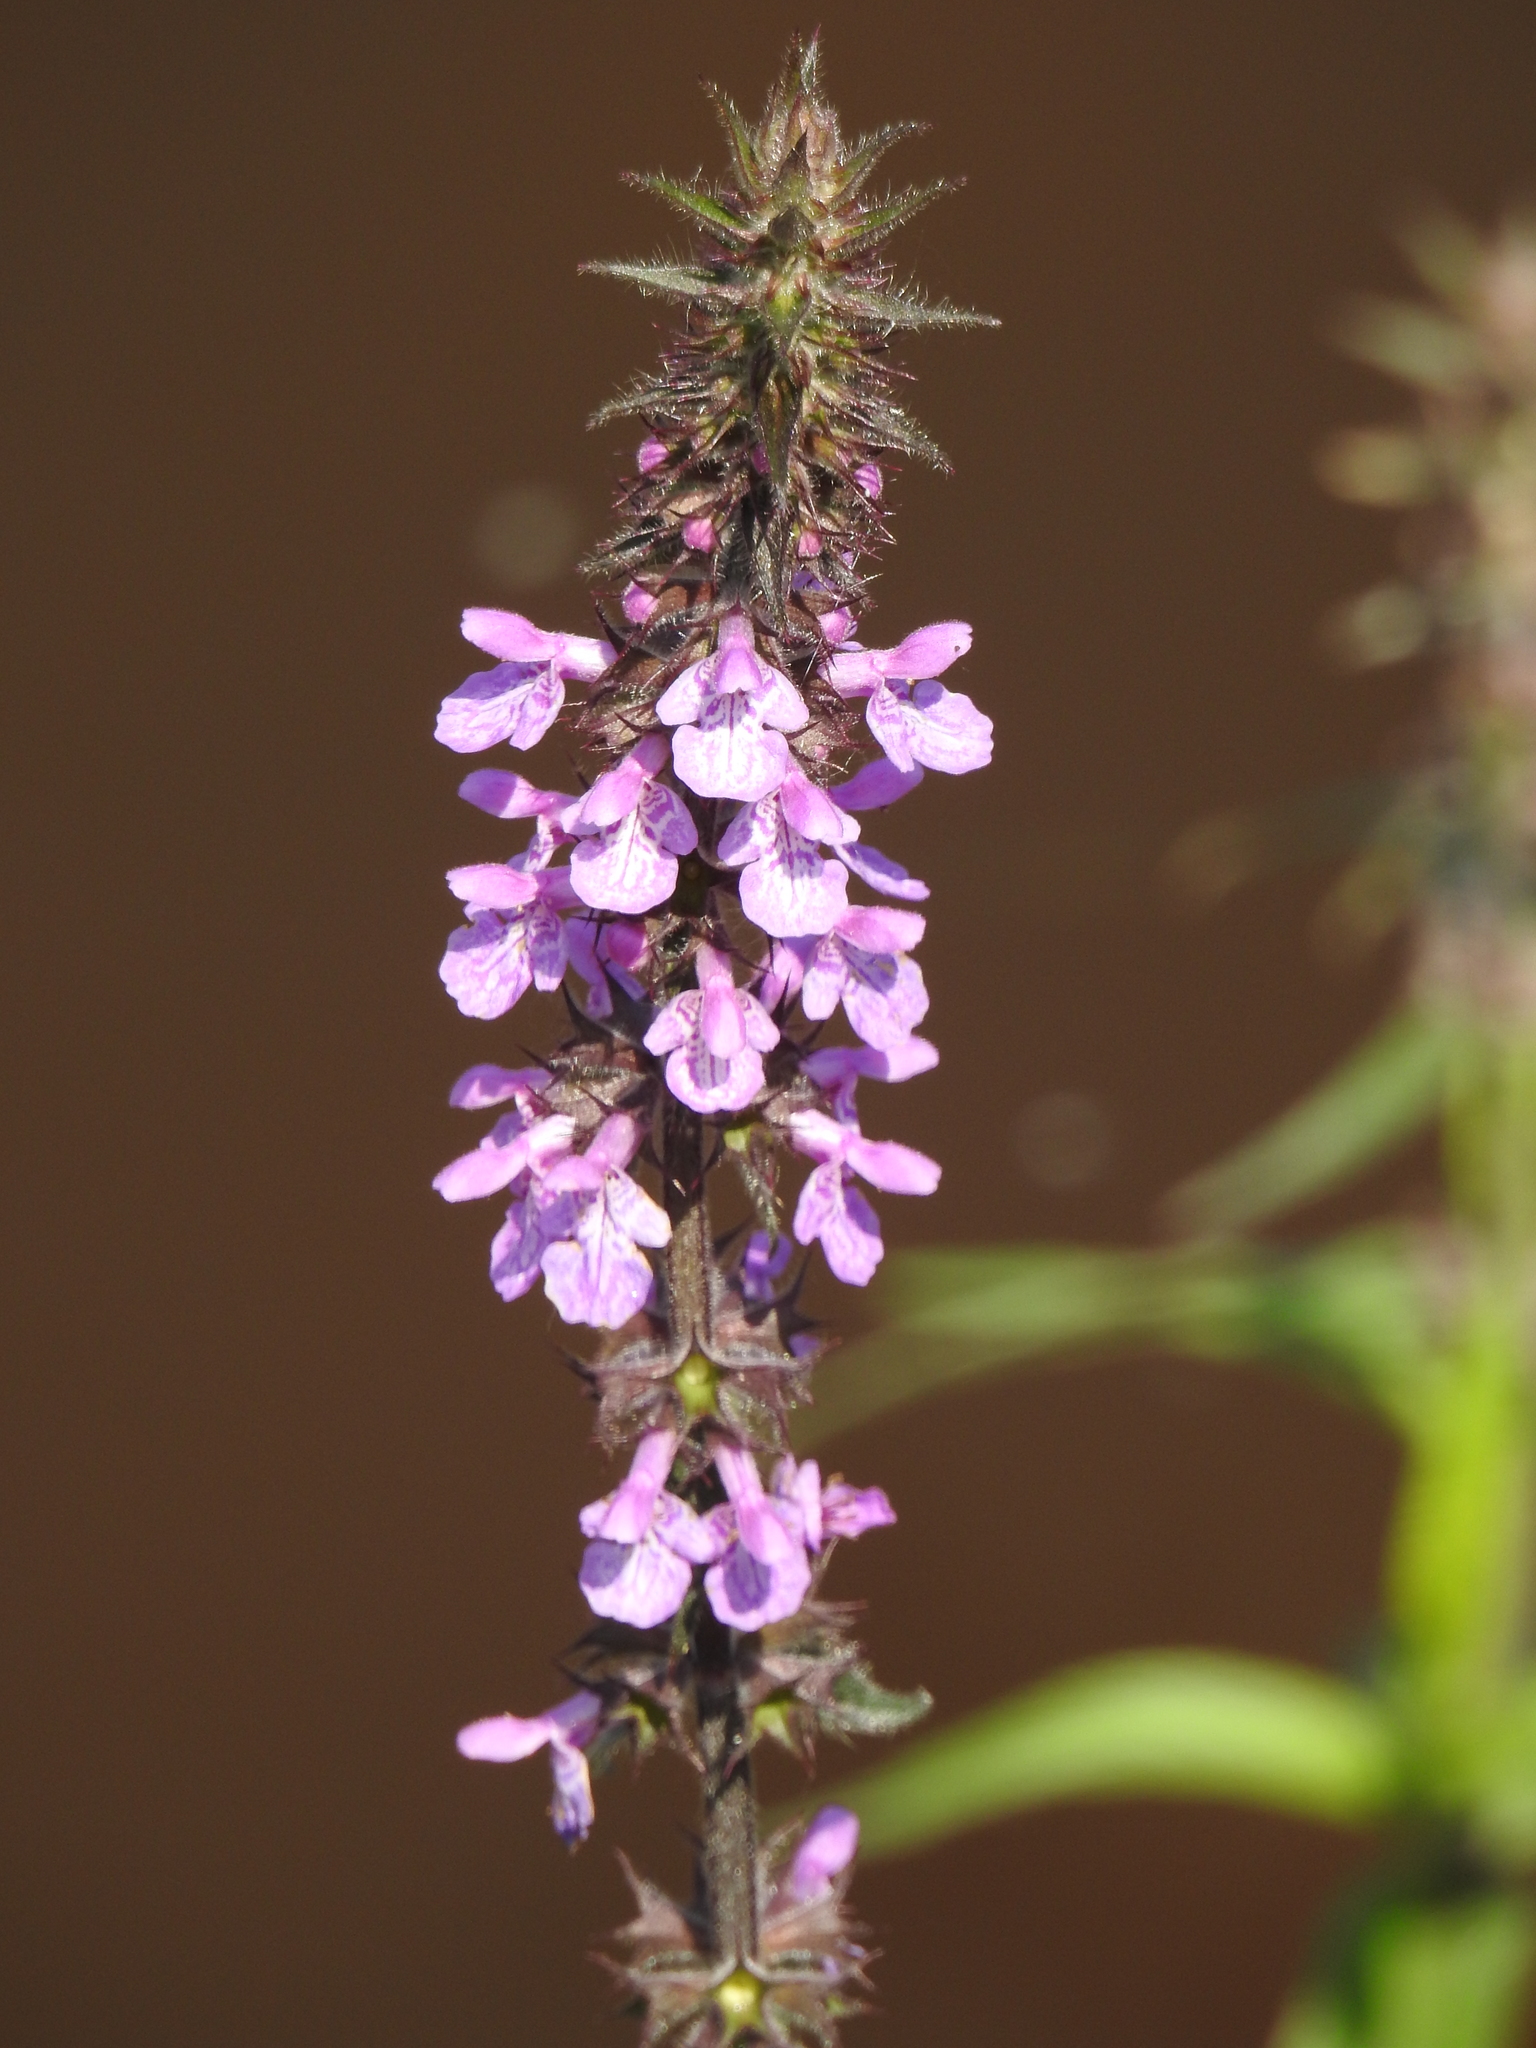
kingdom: Plantae
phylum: Tracheophyta
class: Magnoliopsida
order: Lamiales
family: Lamiaceae
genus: Stachys
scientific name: Stachys palustris
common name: Marsh woundwort
